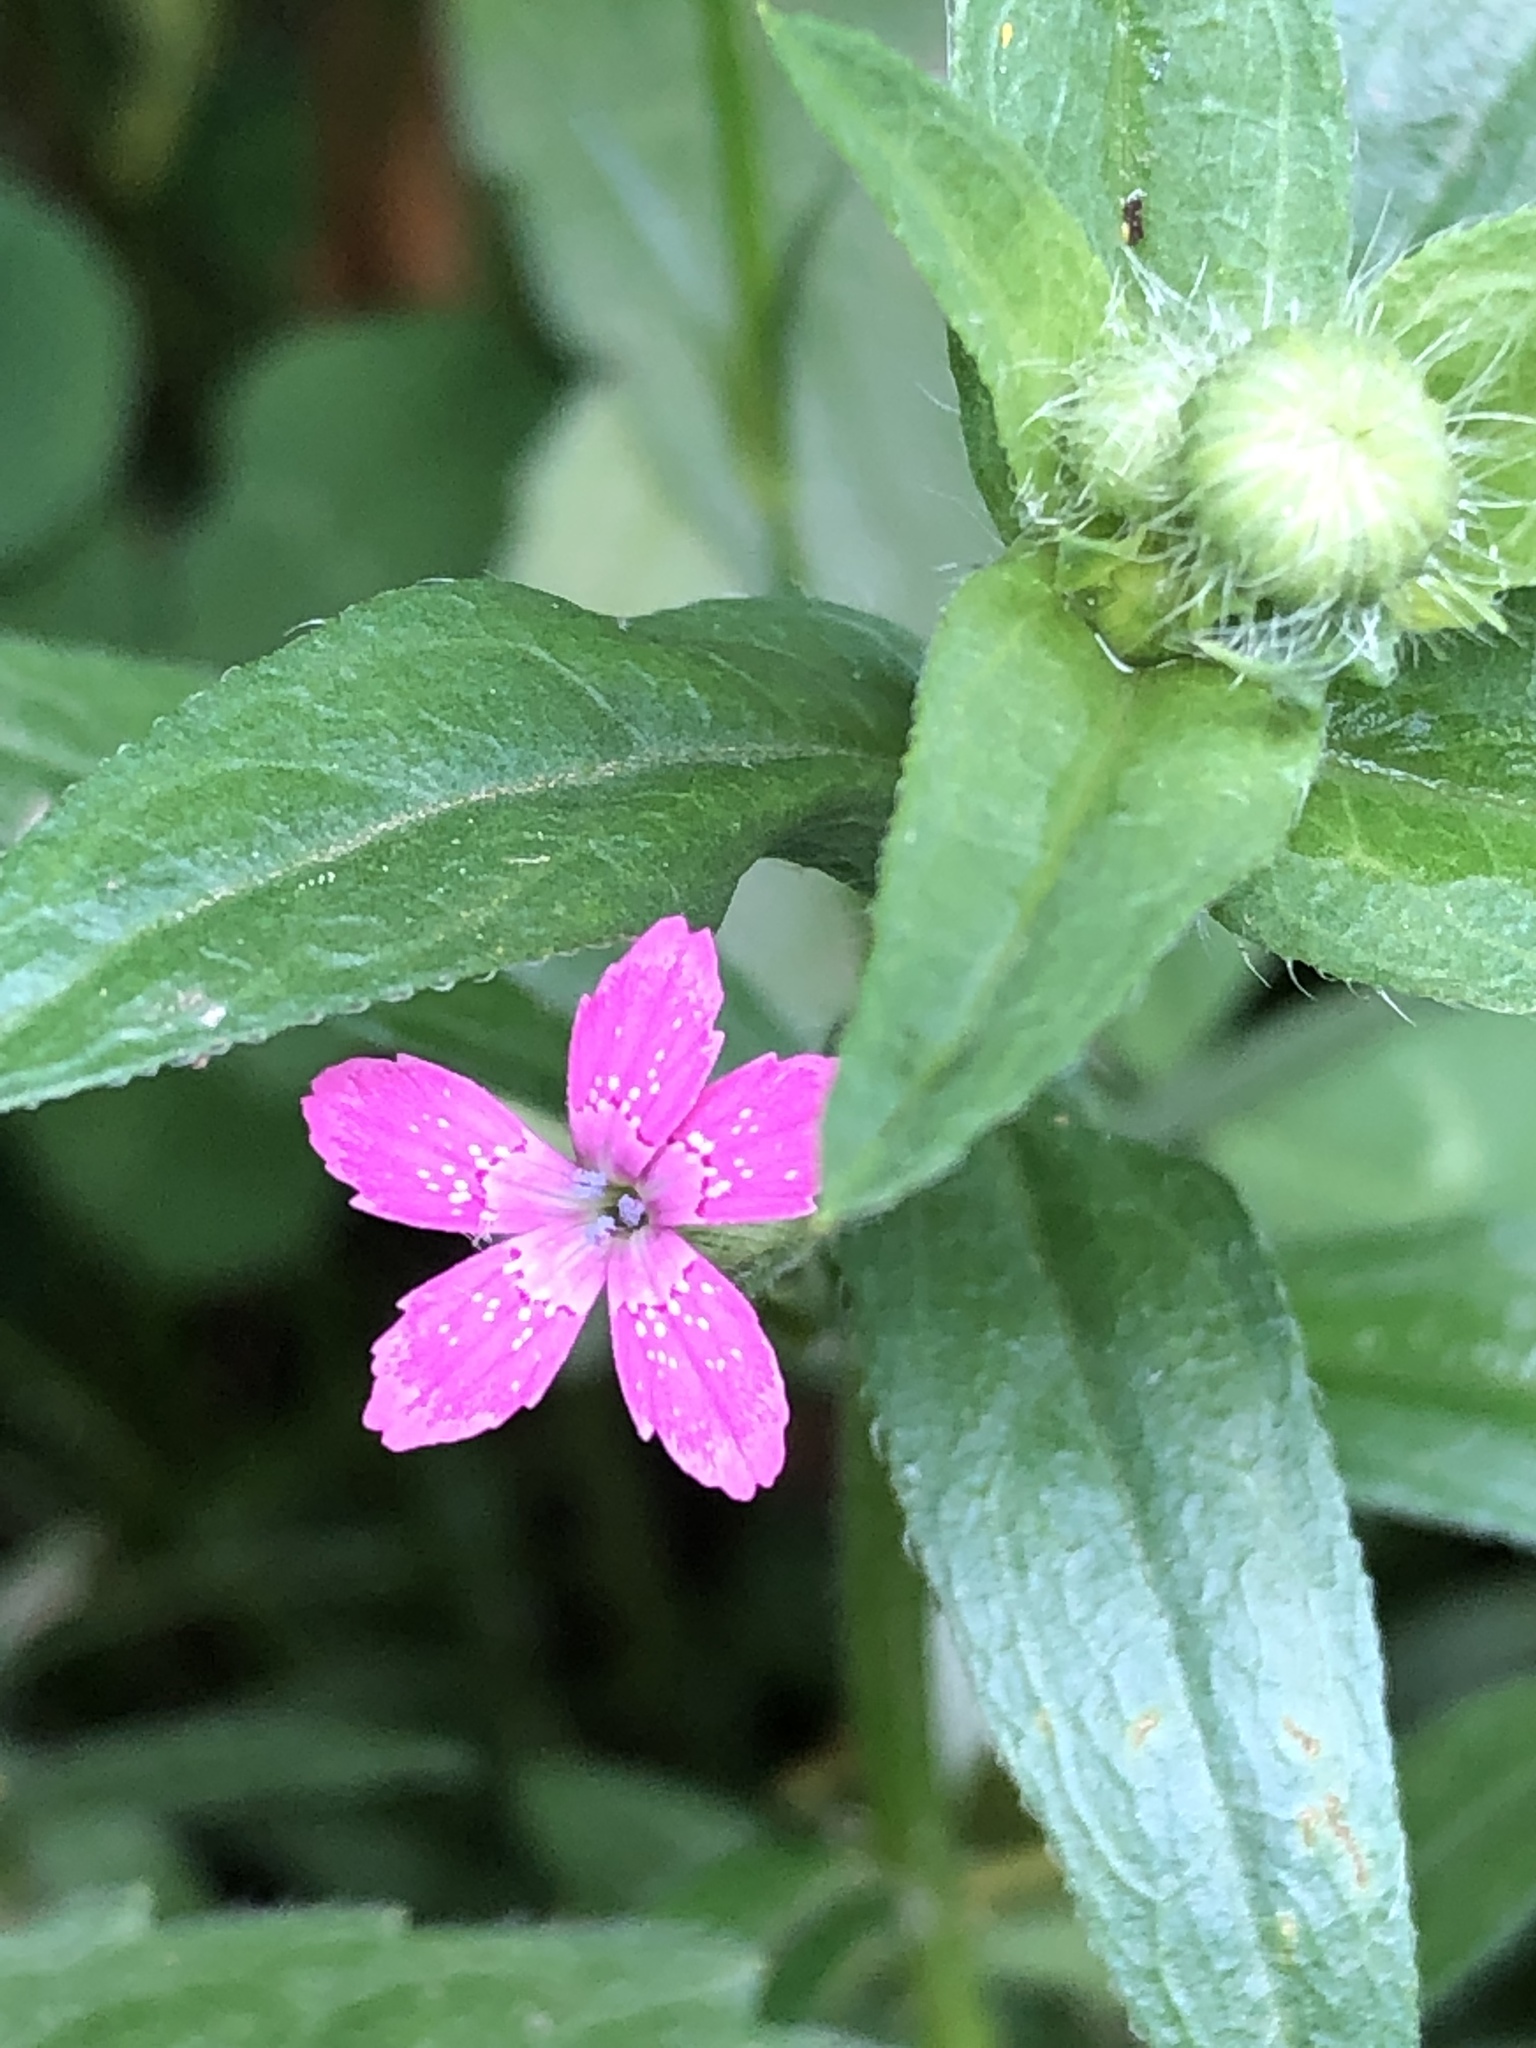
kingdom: Plantae
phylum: Tracheophyta
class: Magnoliopsida
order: Caryophyllales
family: Caryophyllaceae
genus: Dianthus
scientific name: Dianthus armeria
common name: Deptford pink
